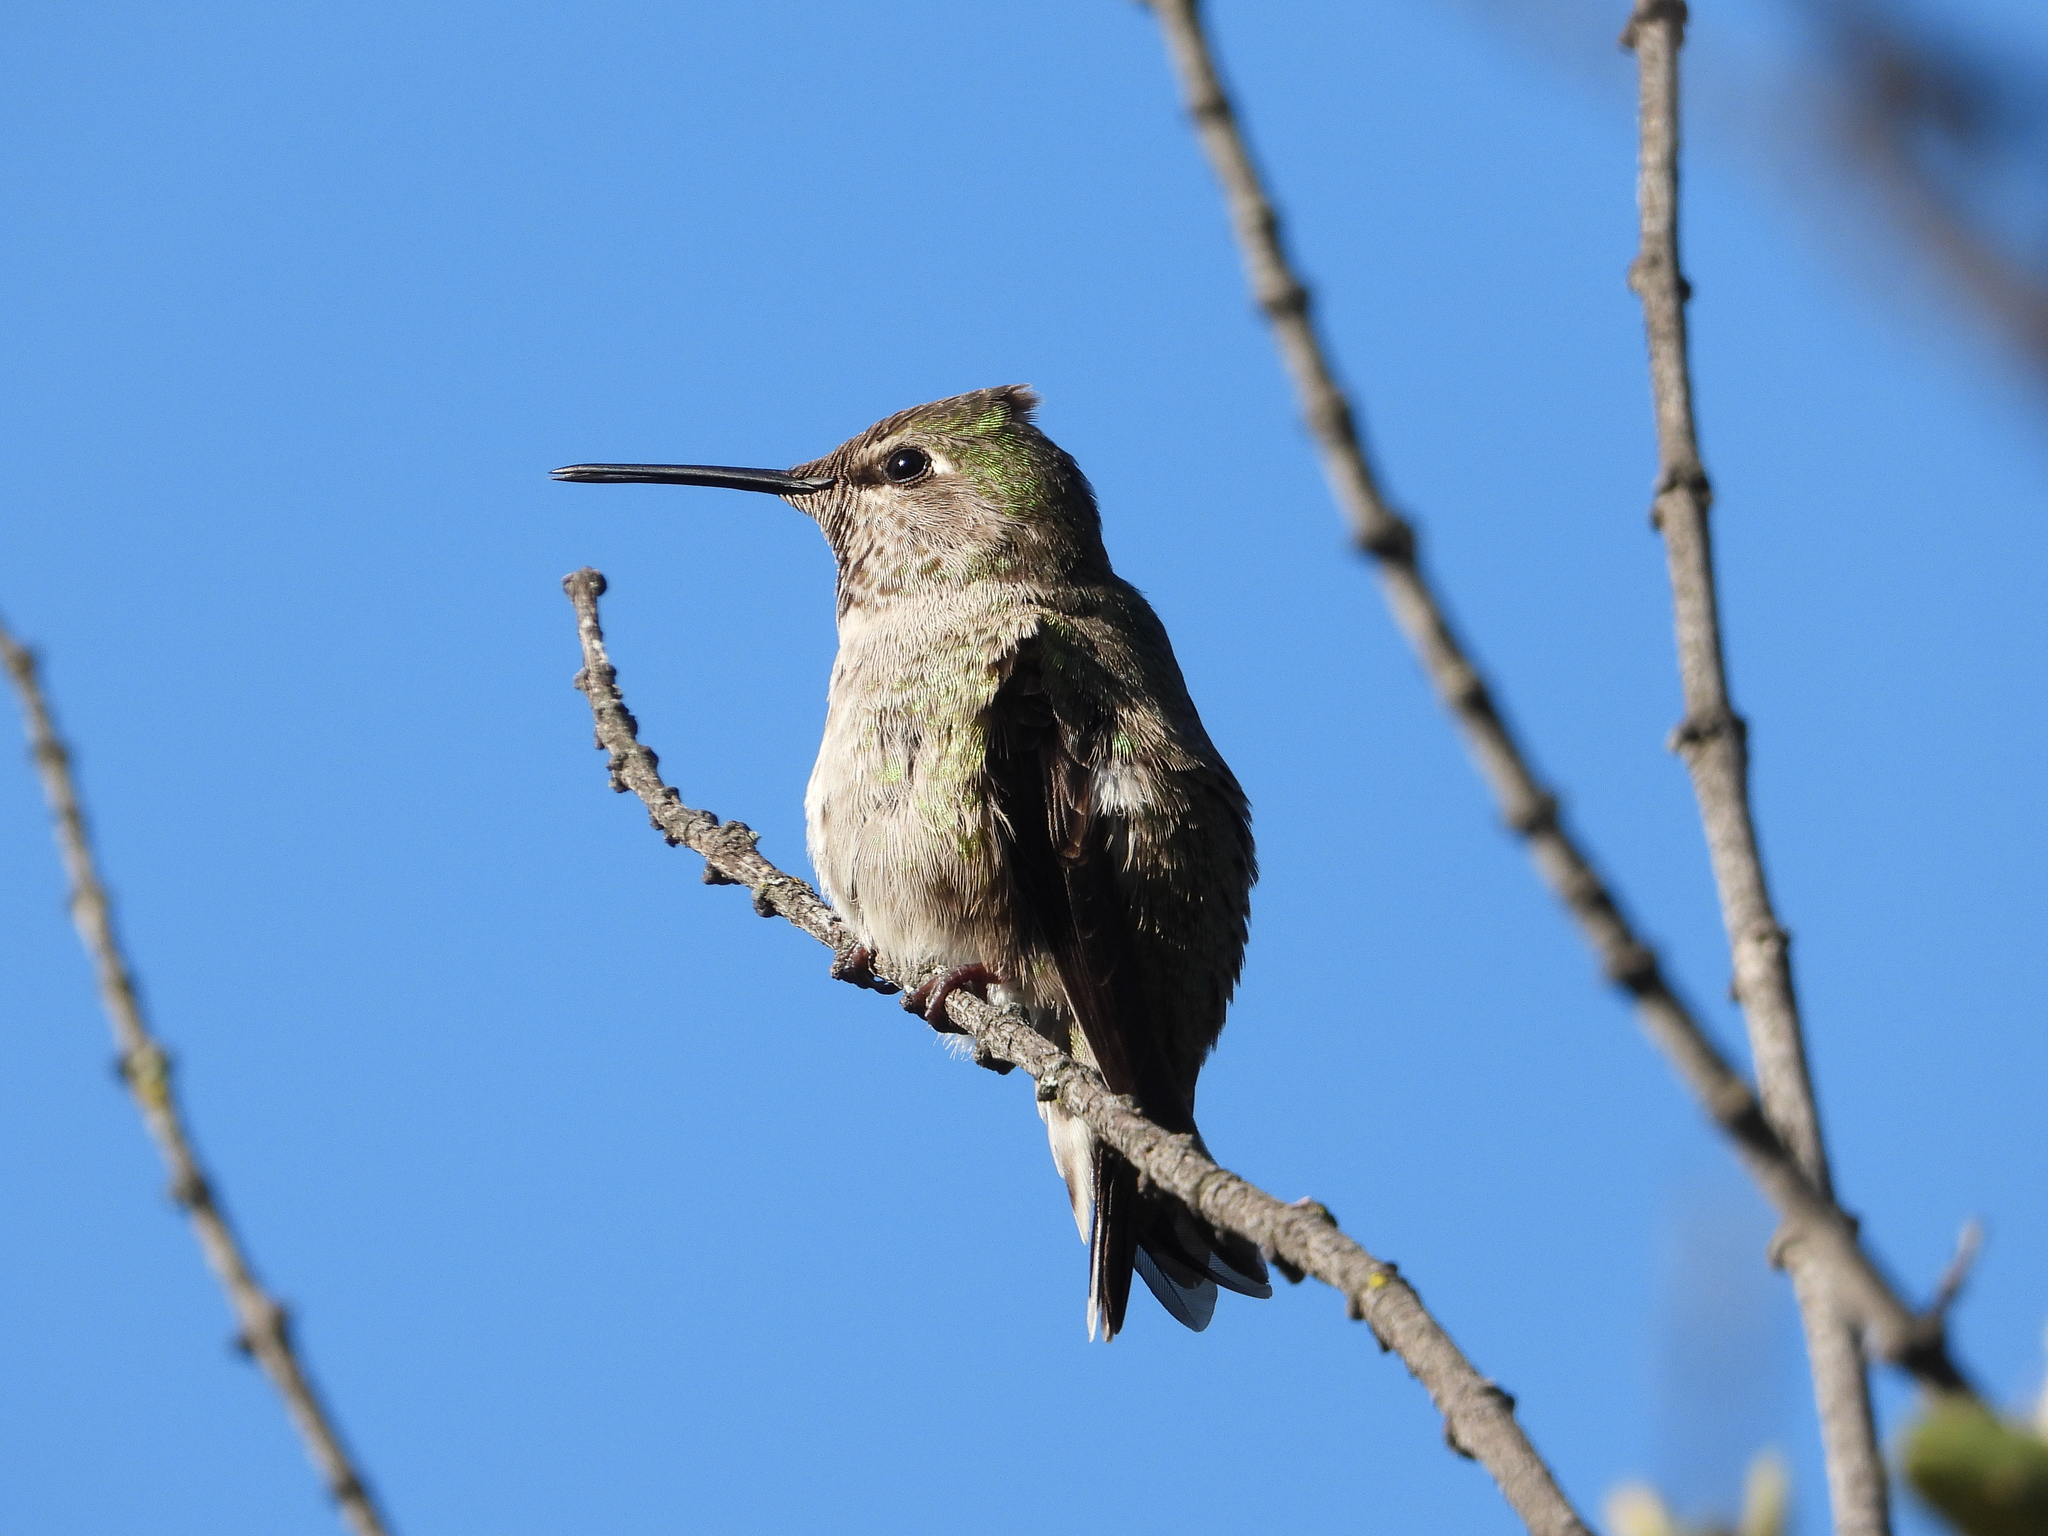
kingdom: Animalia
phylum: Chordata
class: Aves
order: Apodiformes
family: Trochilidae
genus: Calypte
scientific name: Calypte anna
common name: Anna's hummingbird
